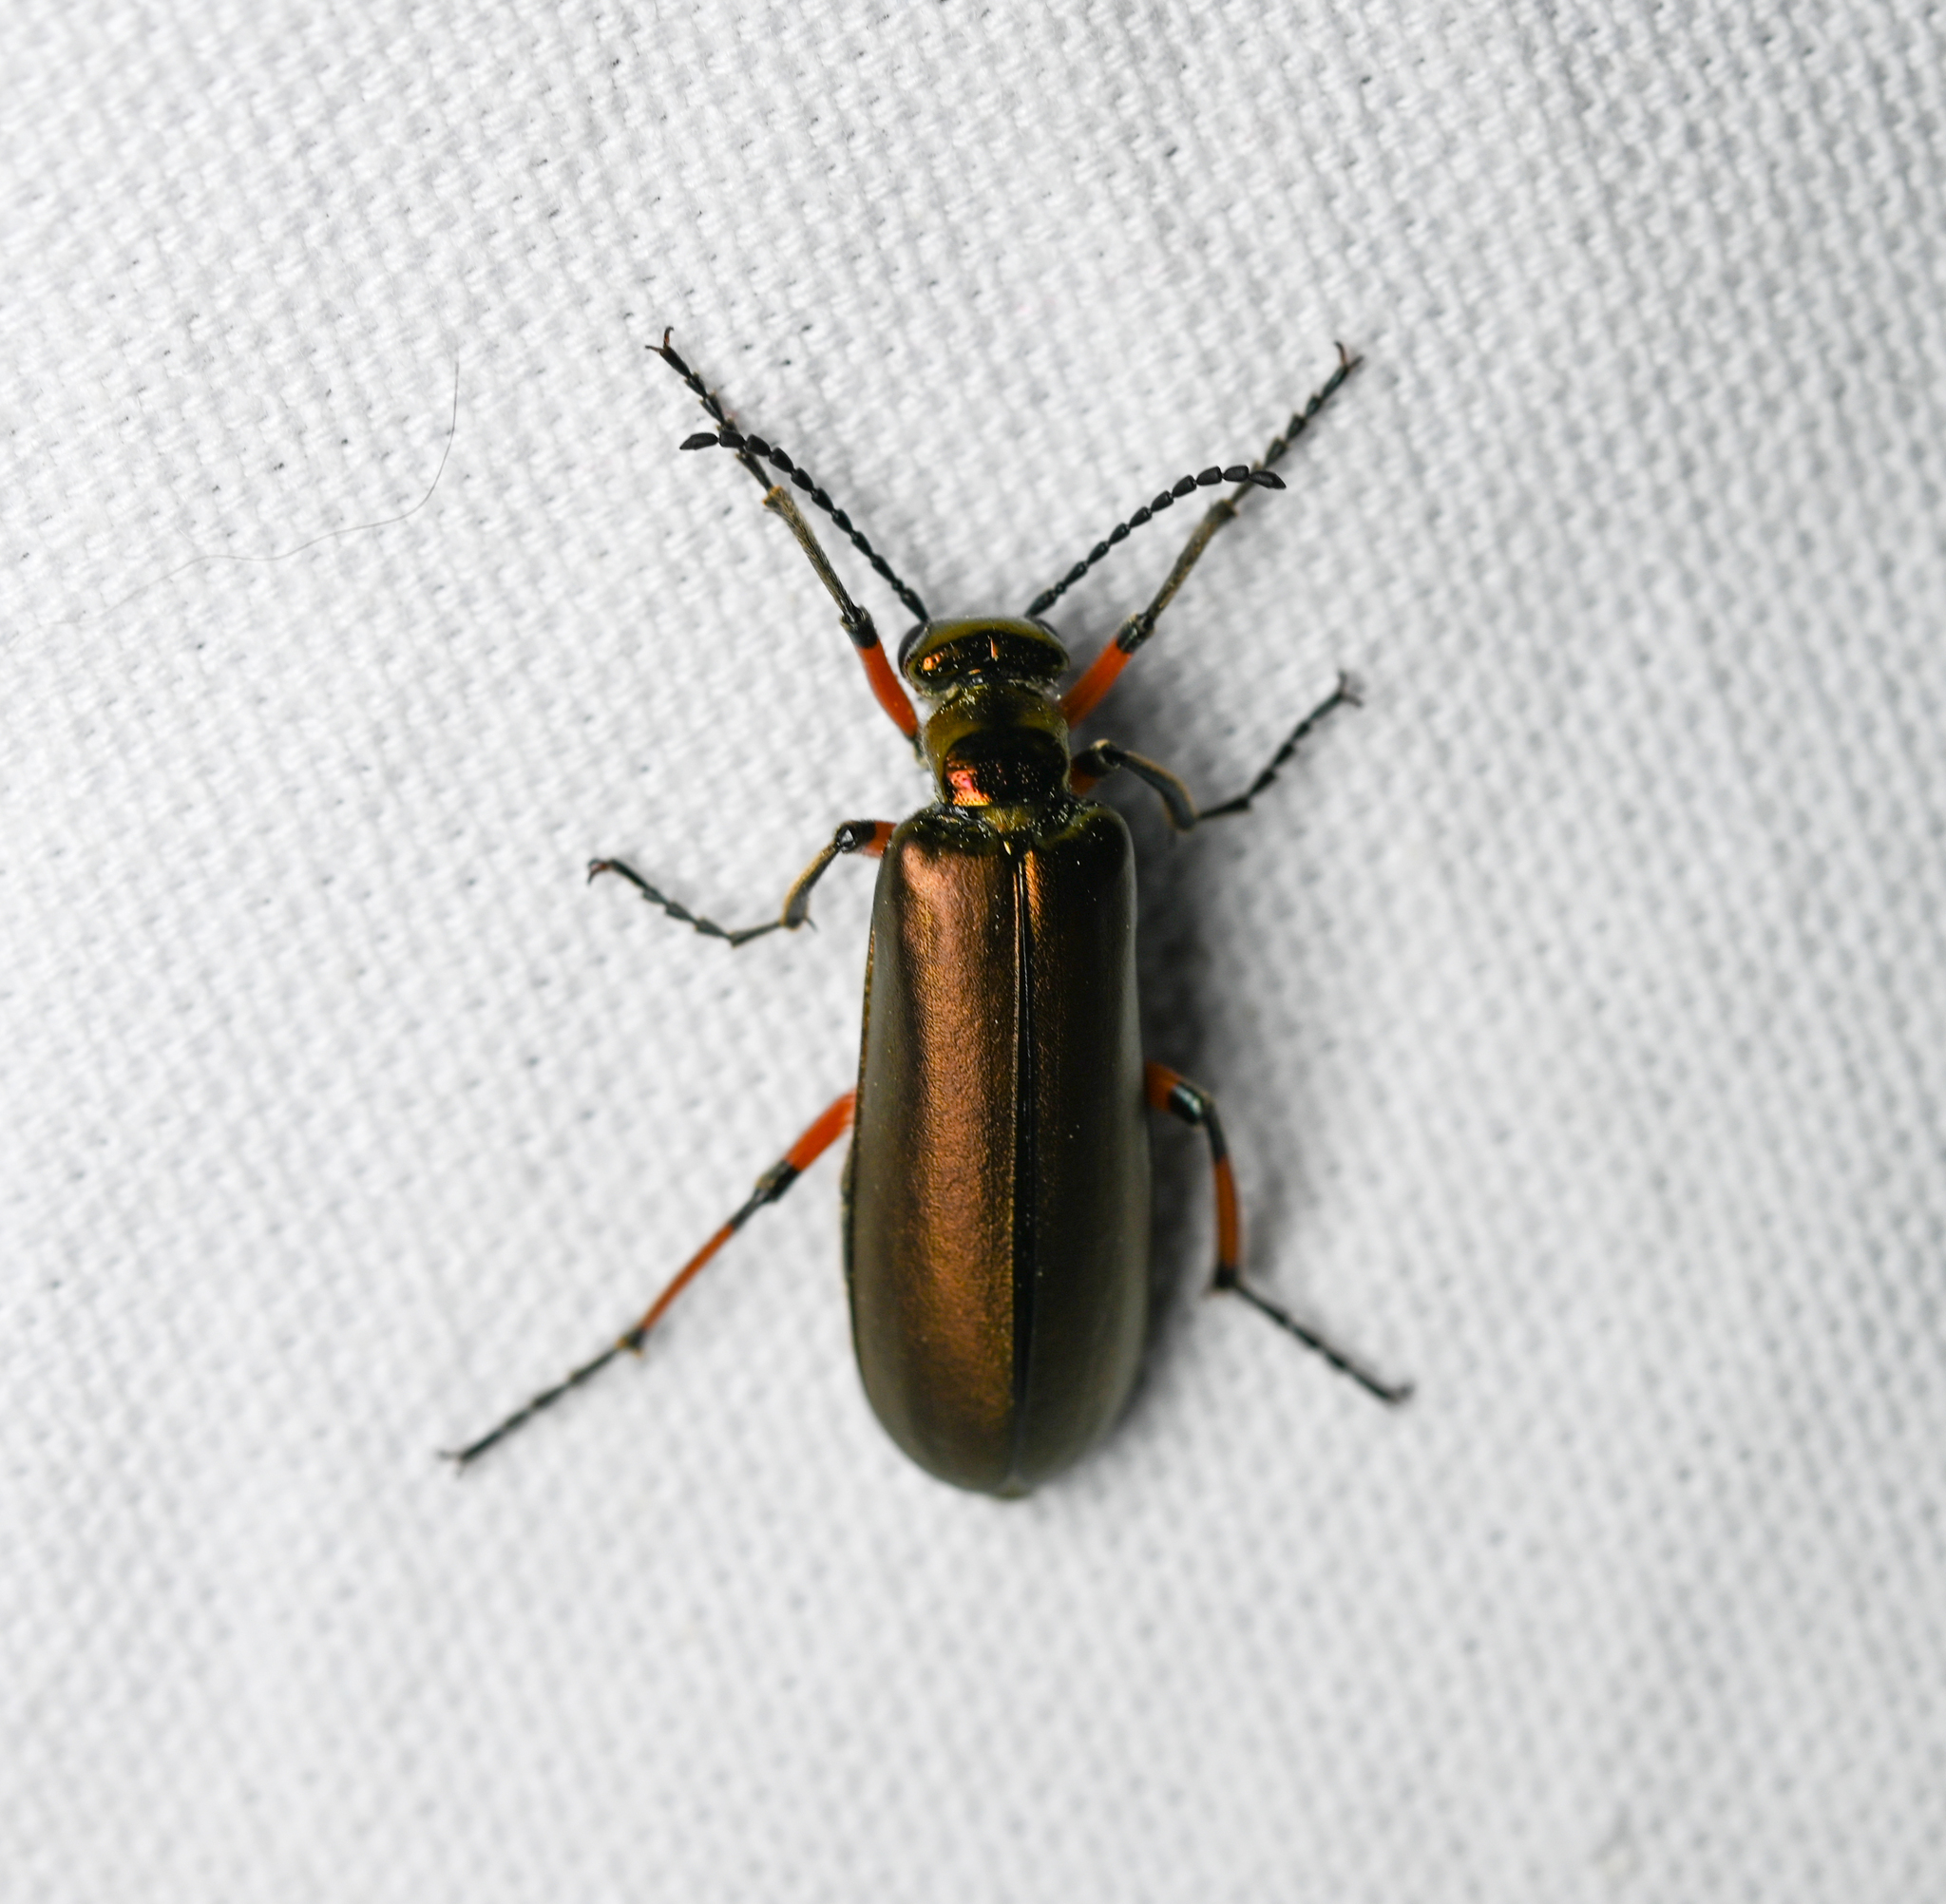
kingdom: Animalia
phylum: Arthropoda
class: Insecta
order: Coleoptera
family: Meloidae
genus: Lytta
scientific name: Lytta polita
